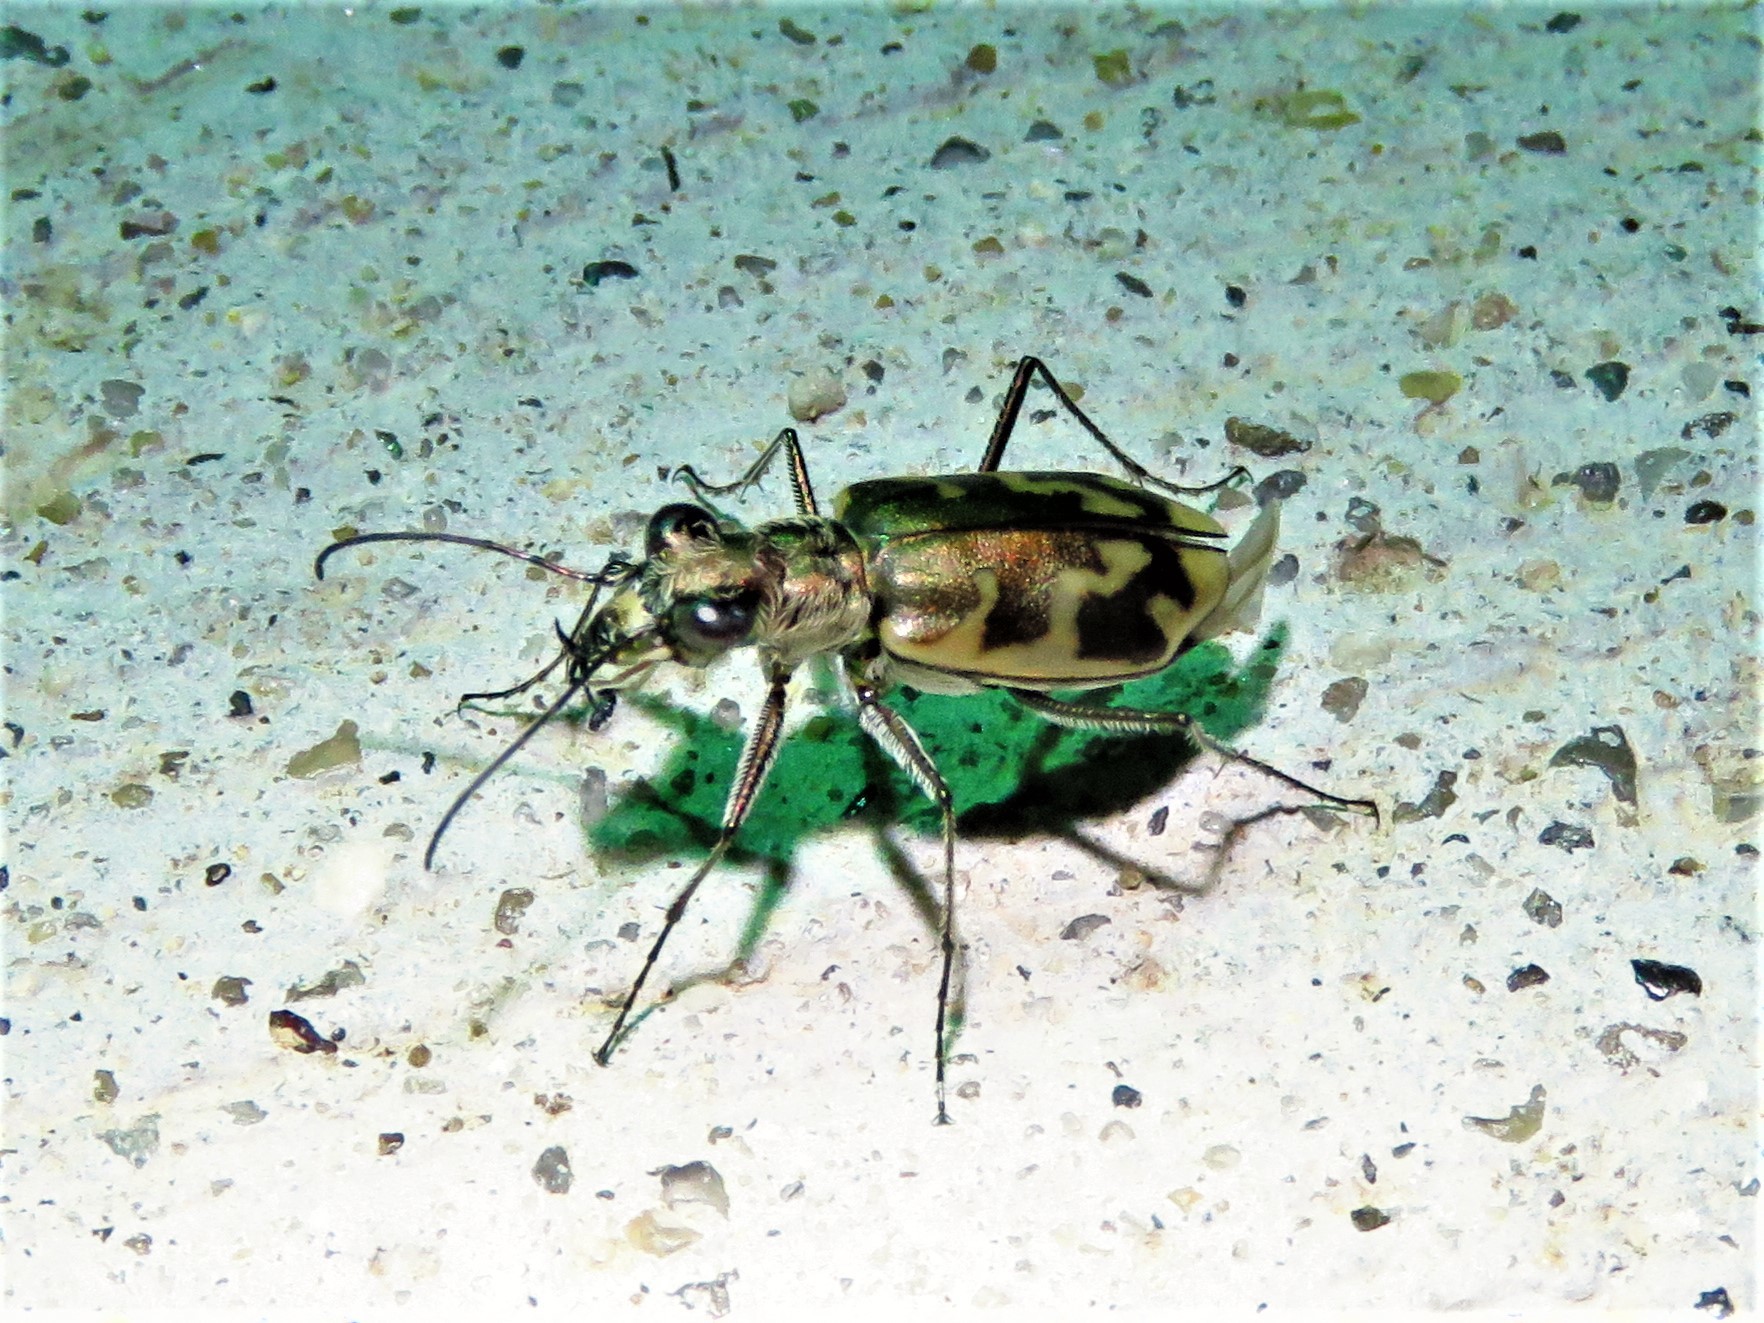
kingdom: Animalia
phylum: Arthropoda
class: Insecta
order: Coleoptera
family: Carabidae
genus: Ellipsoptera
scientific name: Ellipsoptera nevadica
